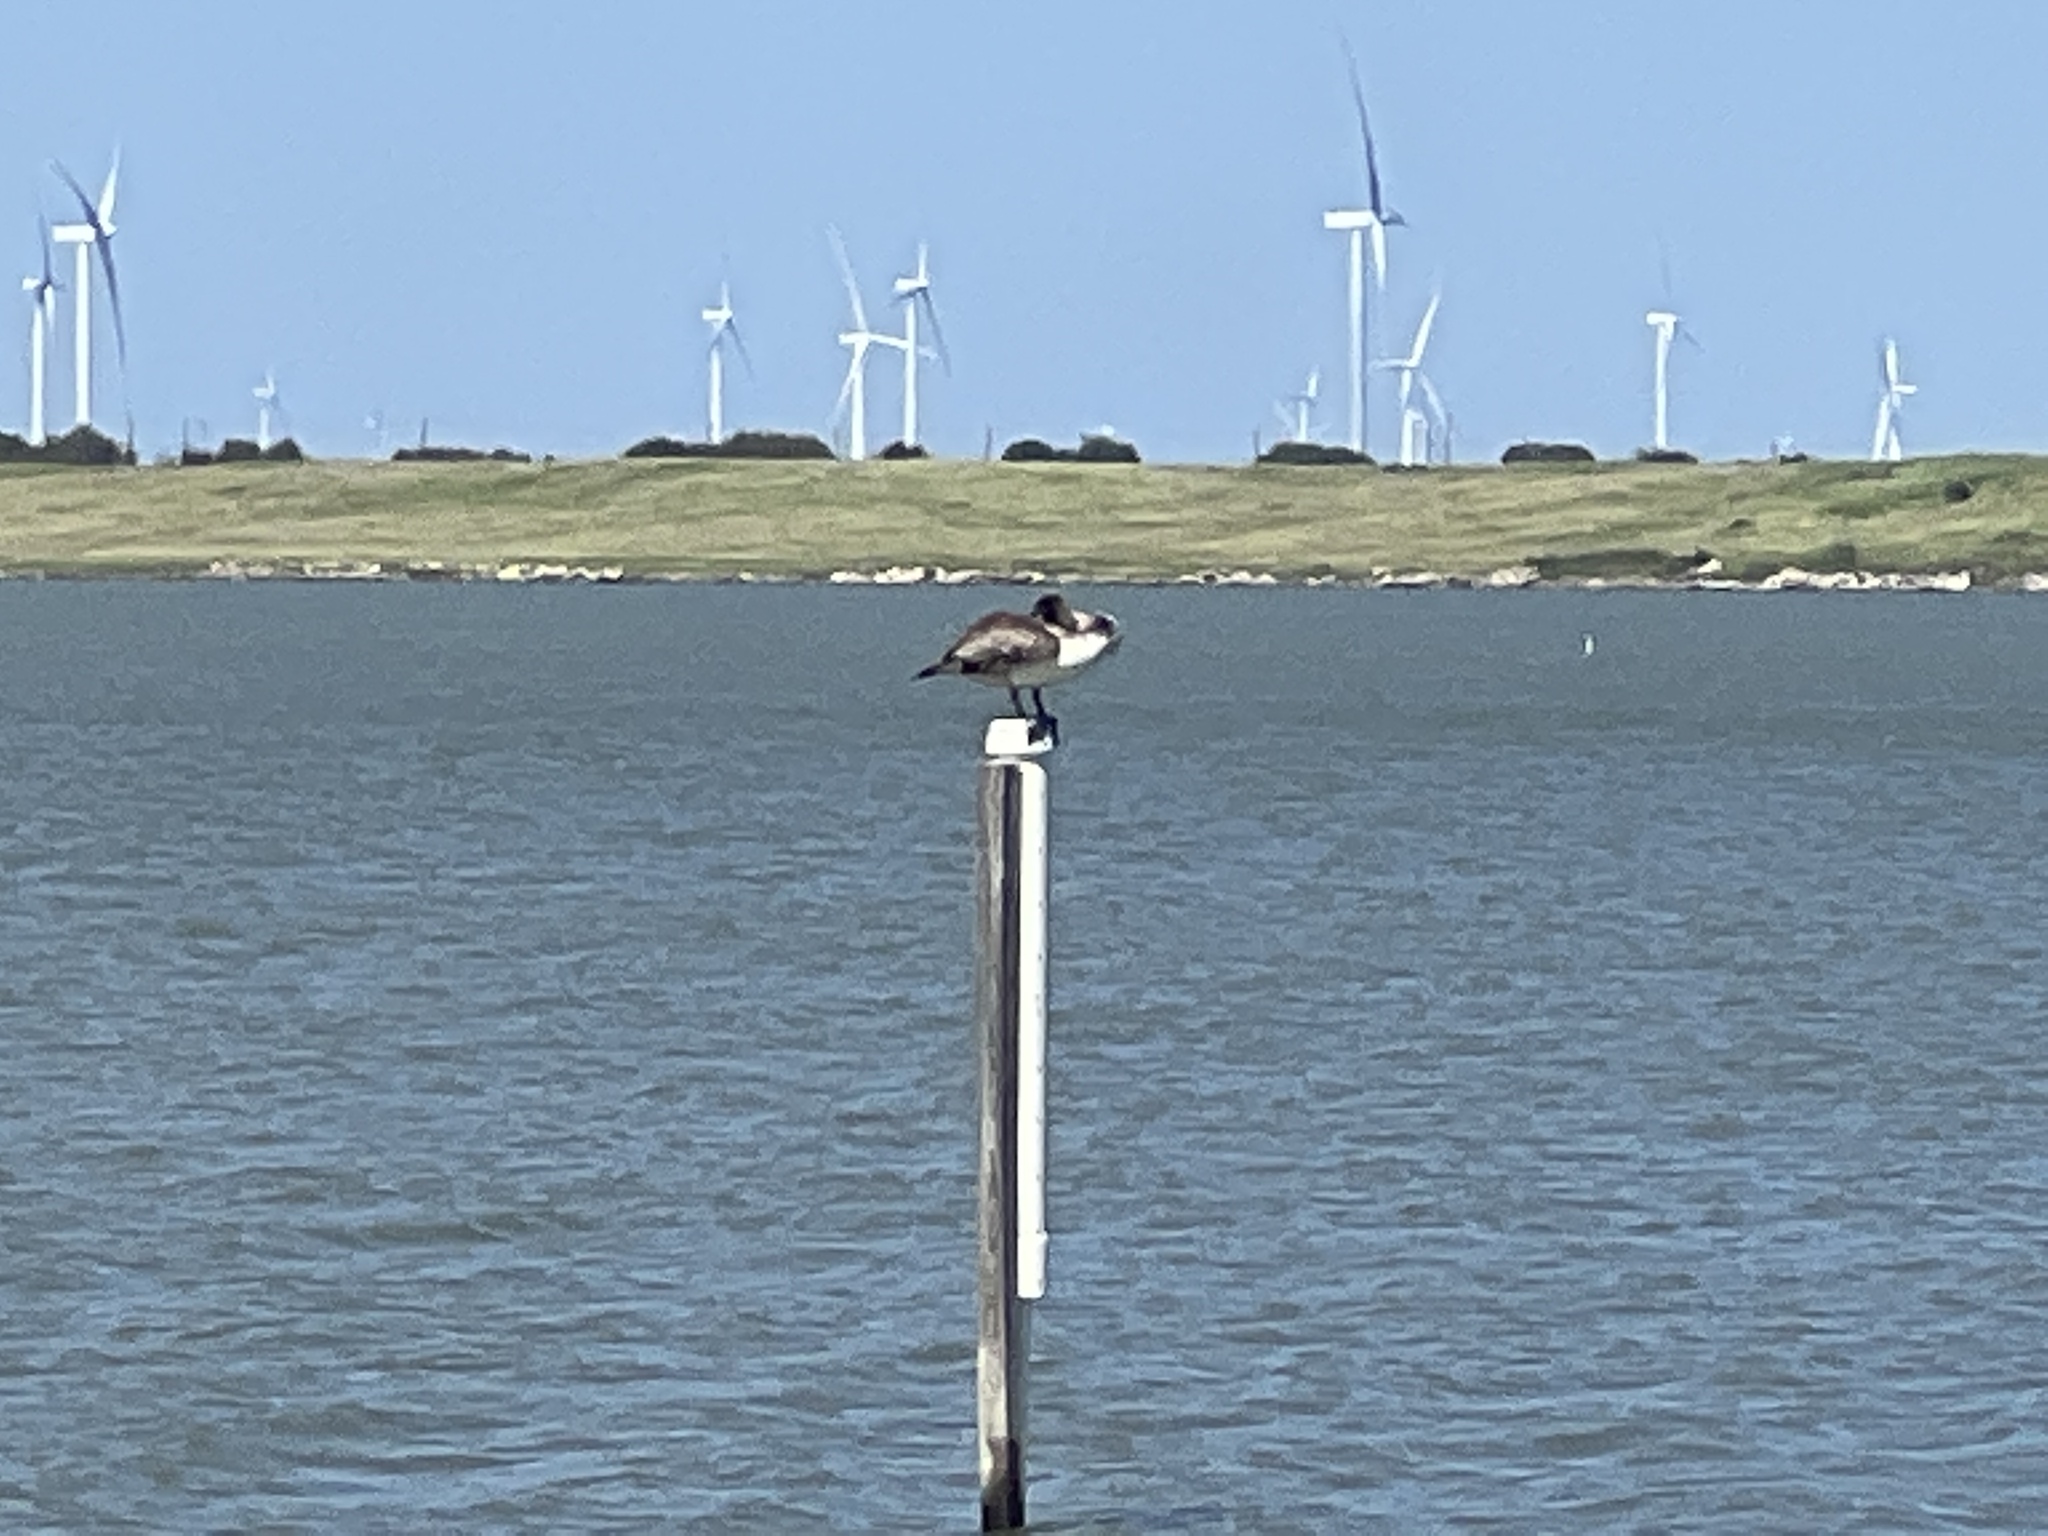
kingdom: Animalia
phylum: Chordata
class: Aves
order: Pelecaniformes
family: Pelecanidae
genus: Pelecanus
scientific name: Pelecanus occidentalis
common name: Brown pelican
